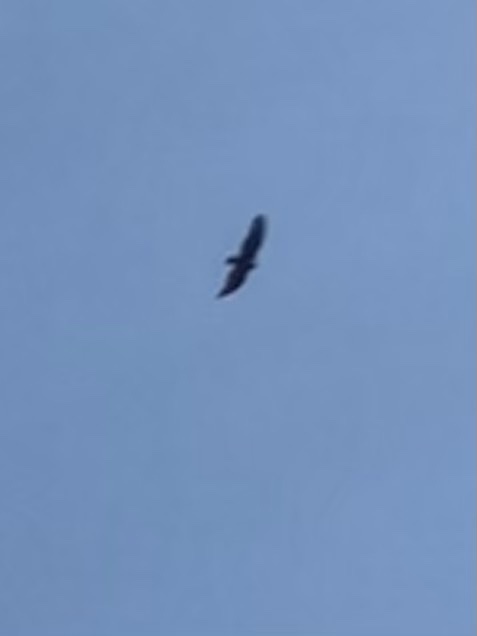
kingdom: Animalia
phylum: Chordata
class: Aves
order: Accipitriformes
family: Cathartidae
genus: Cathartes
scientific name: Cathartes aura
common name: Turkey vulture
